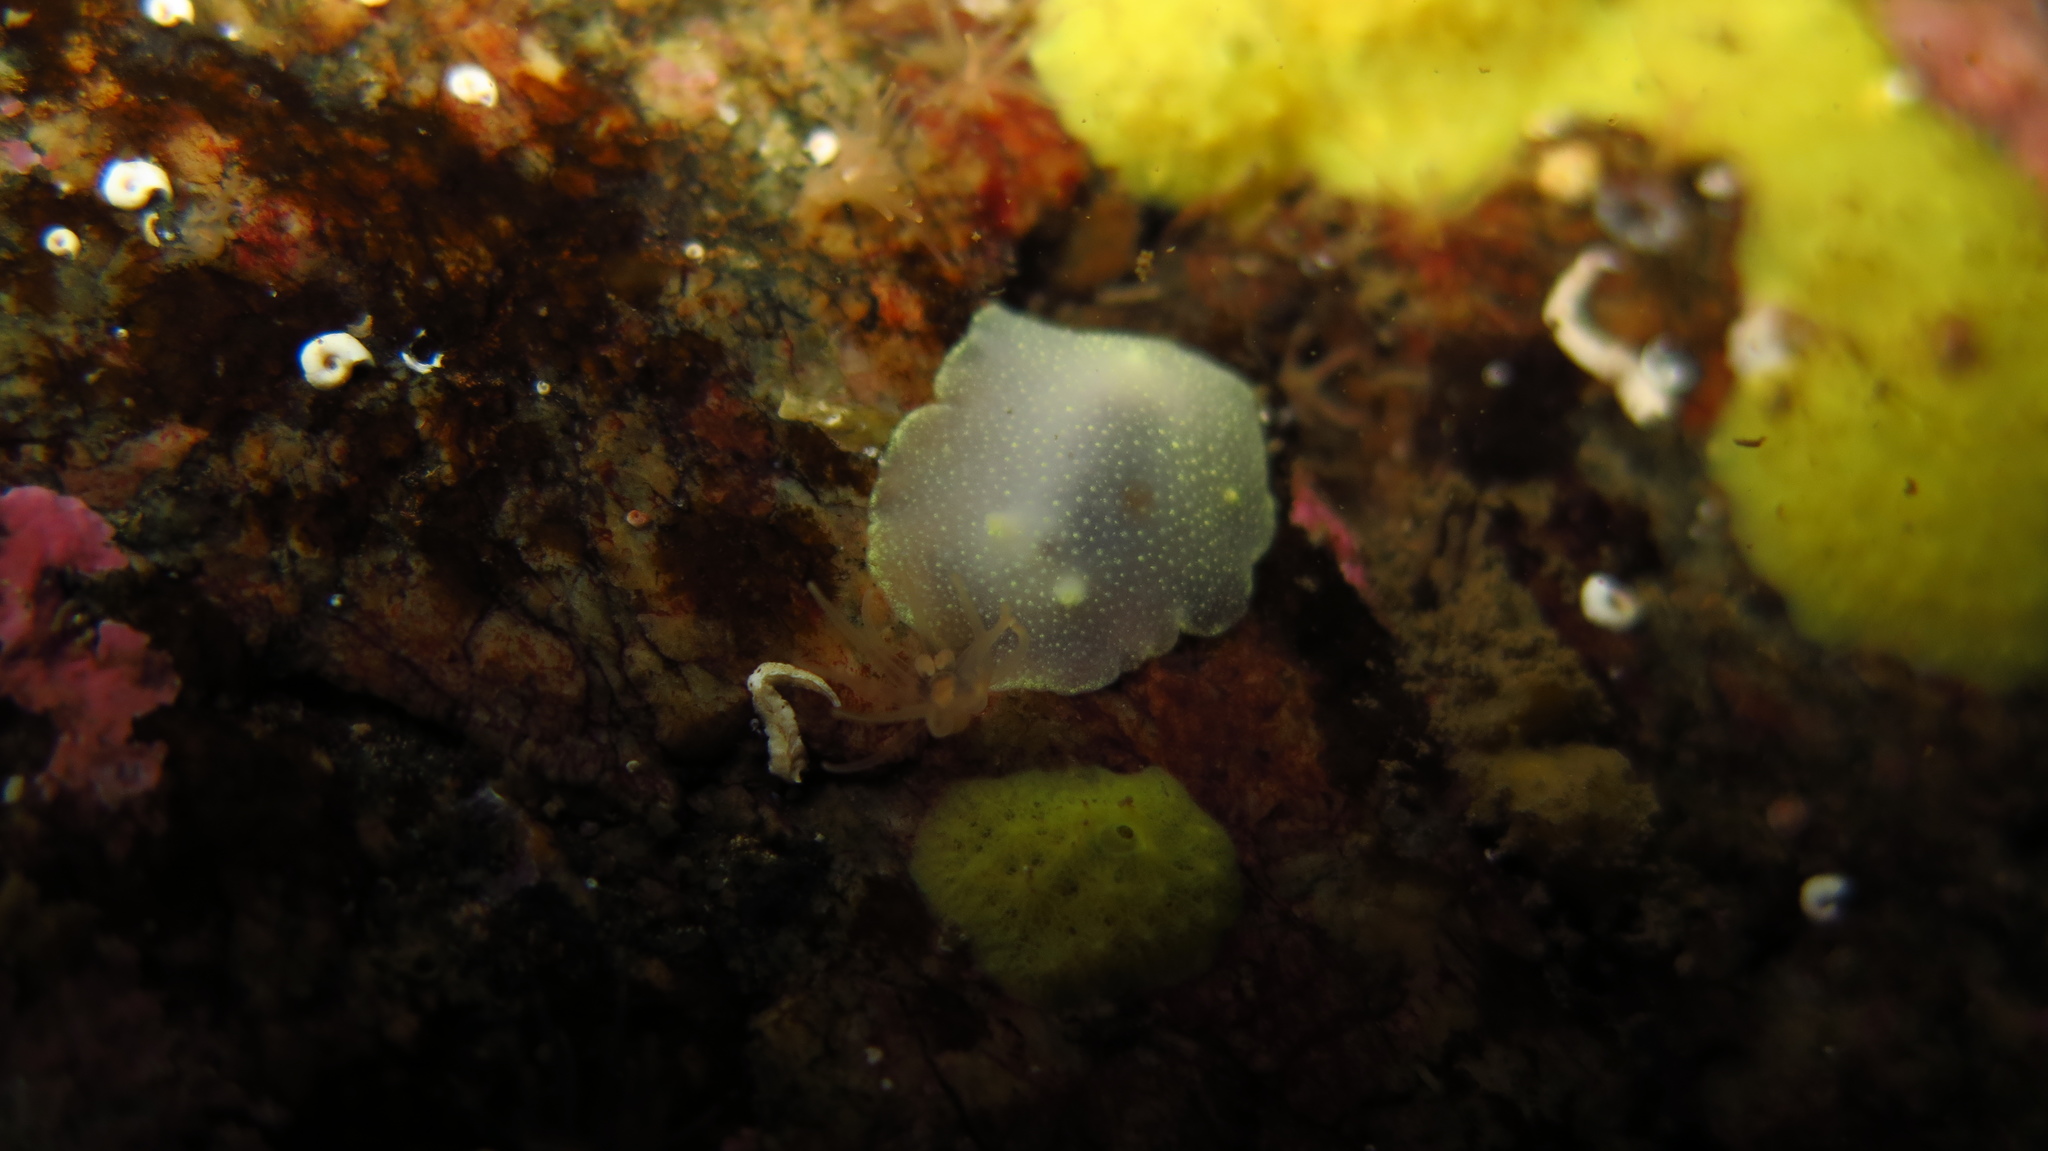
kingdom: Animalia
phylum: Mollusca
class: Gastropoda
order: Nudibranchia
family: Cadlinidae
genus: Cadlina
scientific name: Cadlina laevis
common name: White atlantic cadlina
